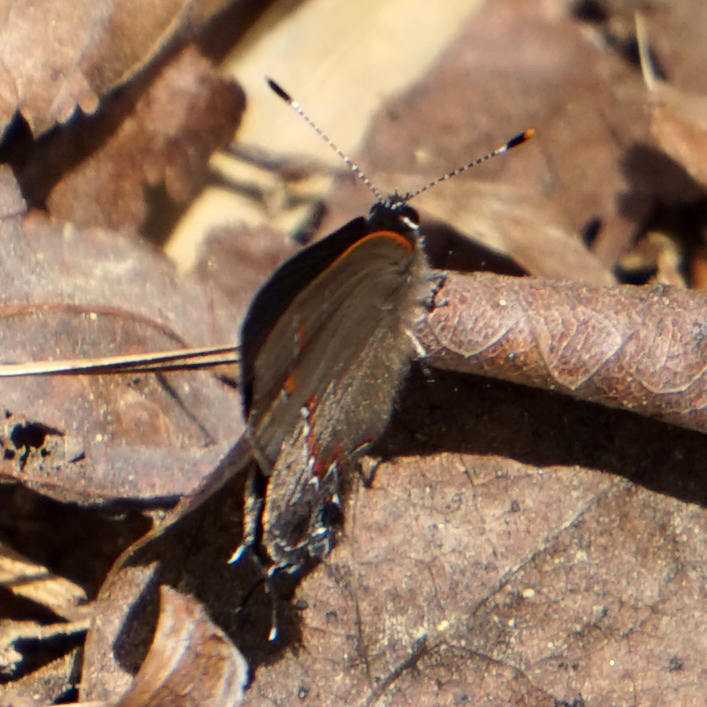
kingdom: Animalia
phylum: Arthropoda
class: Insecta
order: Lepidoptera
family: Lycaenidae
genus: Calycopis
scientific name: Calycopis cecrops
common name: Red-banded hairstreak
